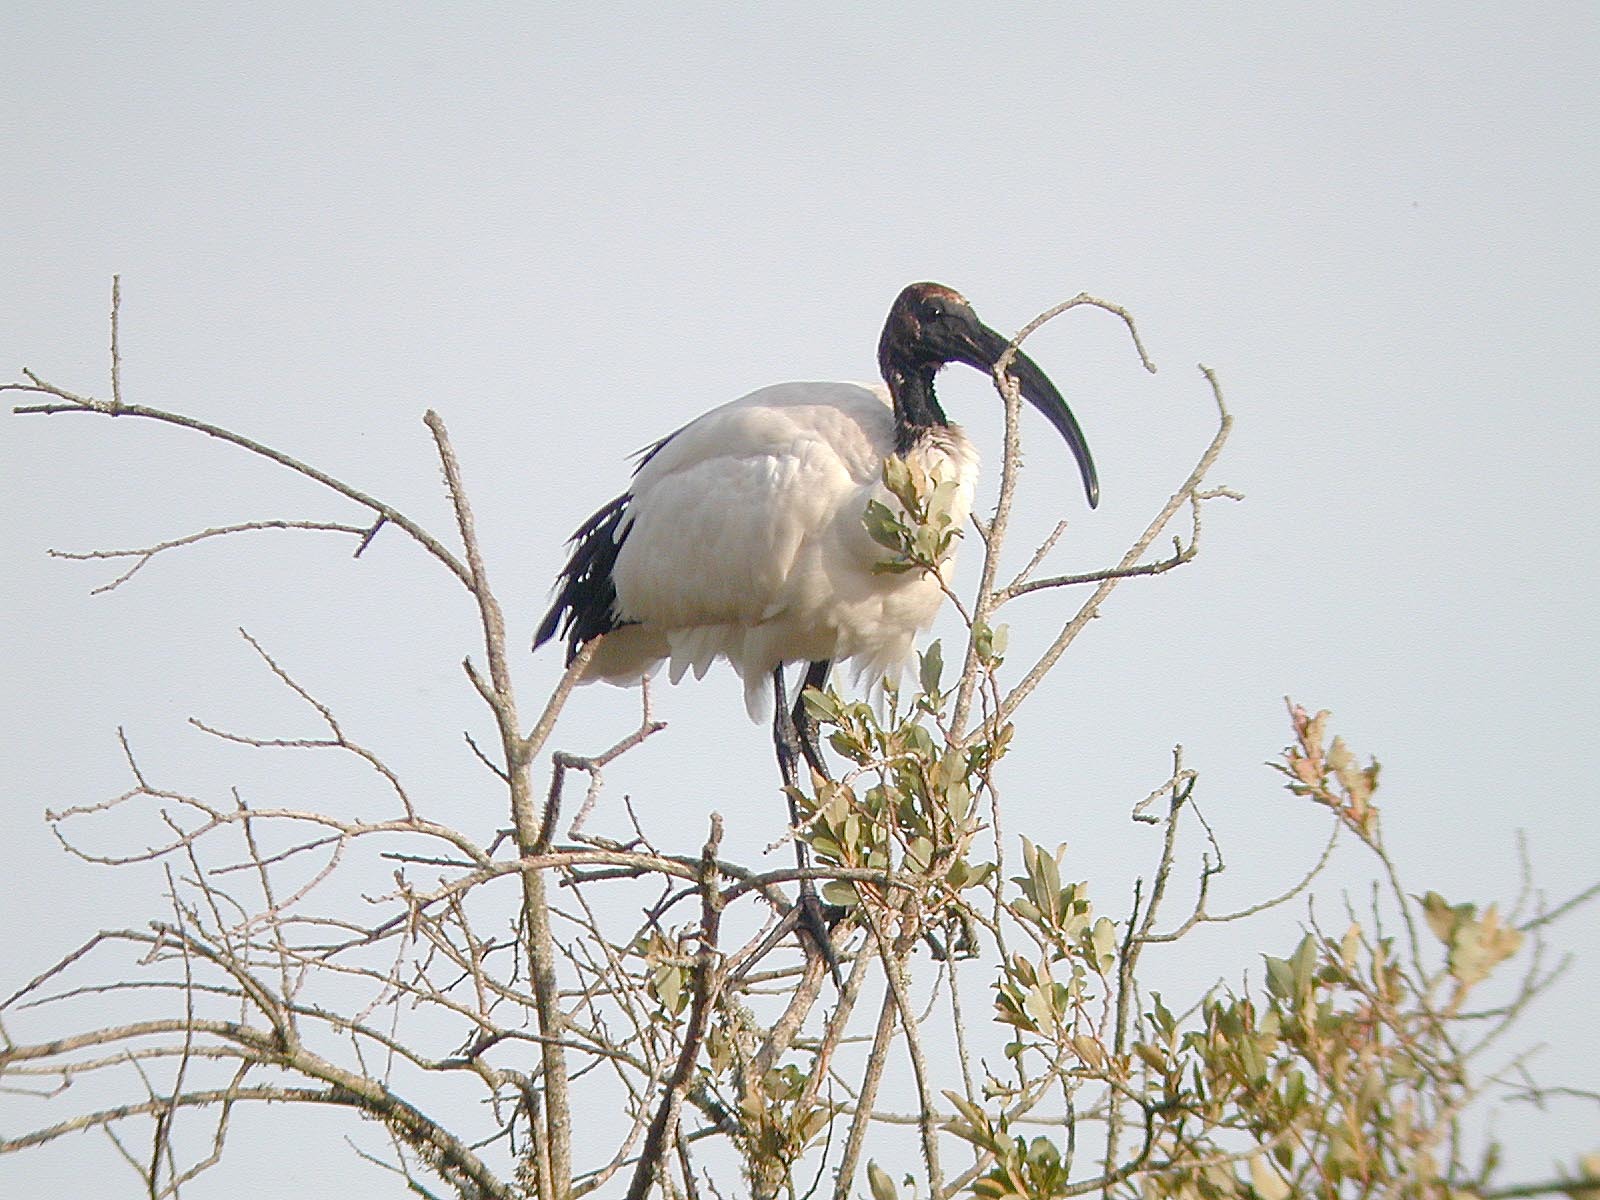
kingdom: Animalia
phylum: Chordata
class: Aves
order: Pelecaniformes
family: Threskiornithidae
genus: Threskiornis
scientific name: Threskiornis aethiopicus
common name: Sacred ibis
